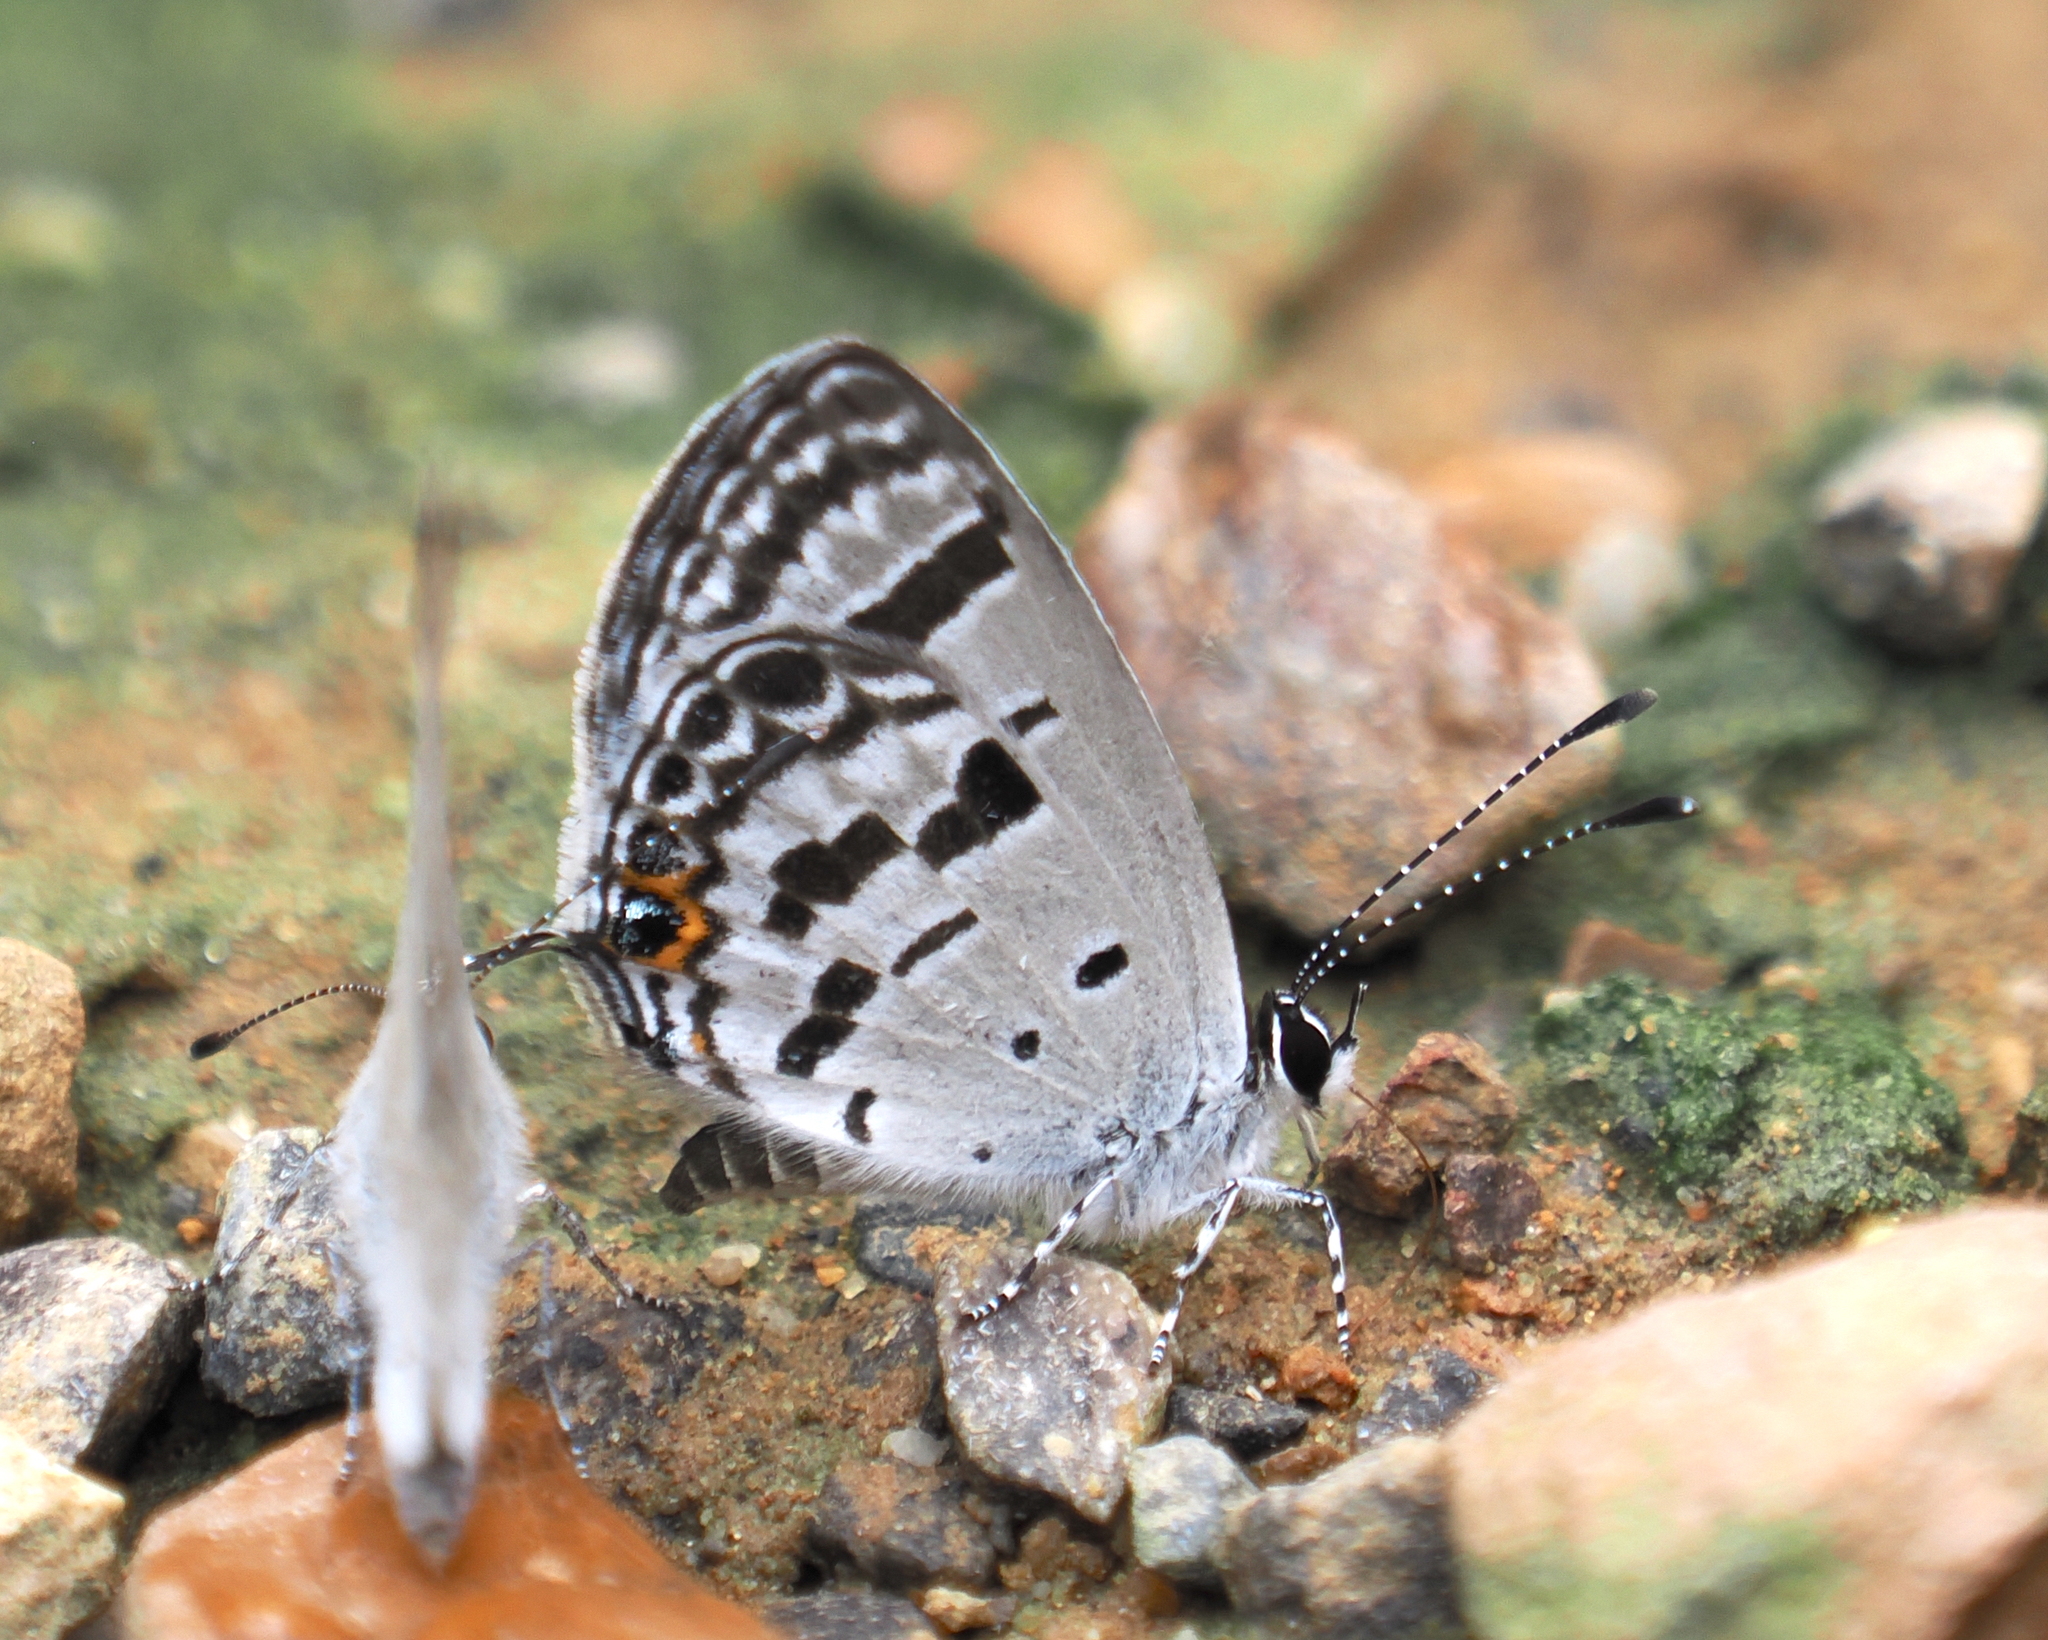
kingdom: Animalia
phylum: Arthropoda
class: Insecta
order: Lepidoptera
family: Lycaenidae
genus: Tongeia
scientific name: Tongeia
